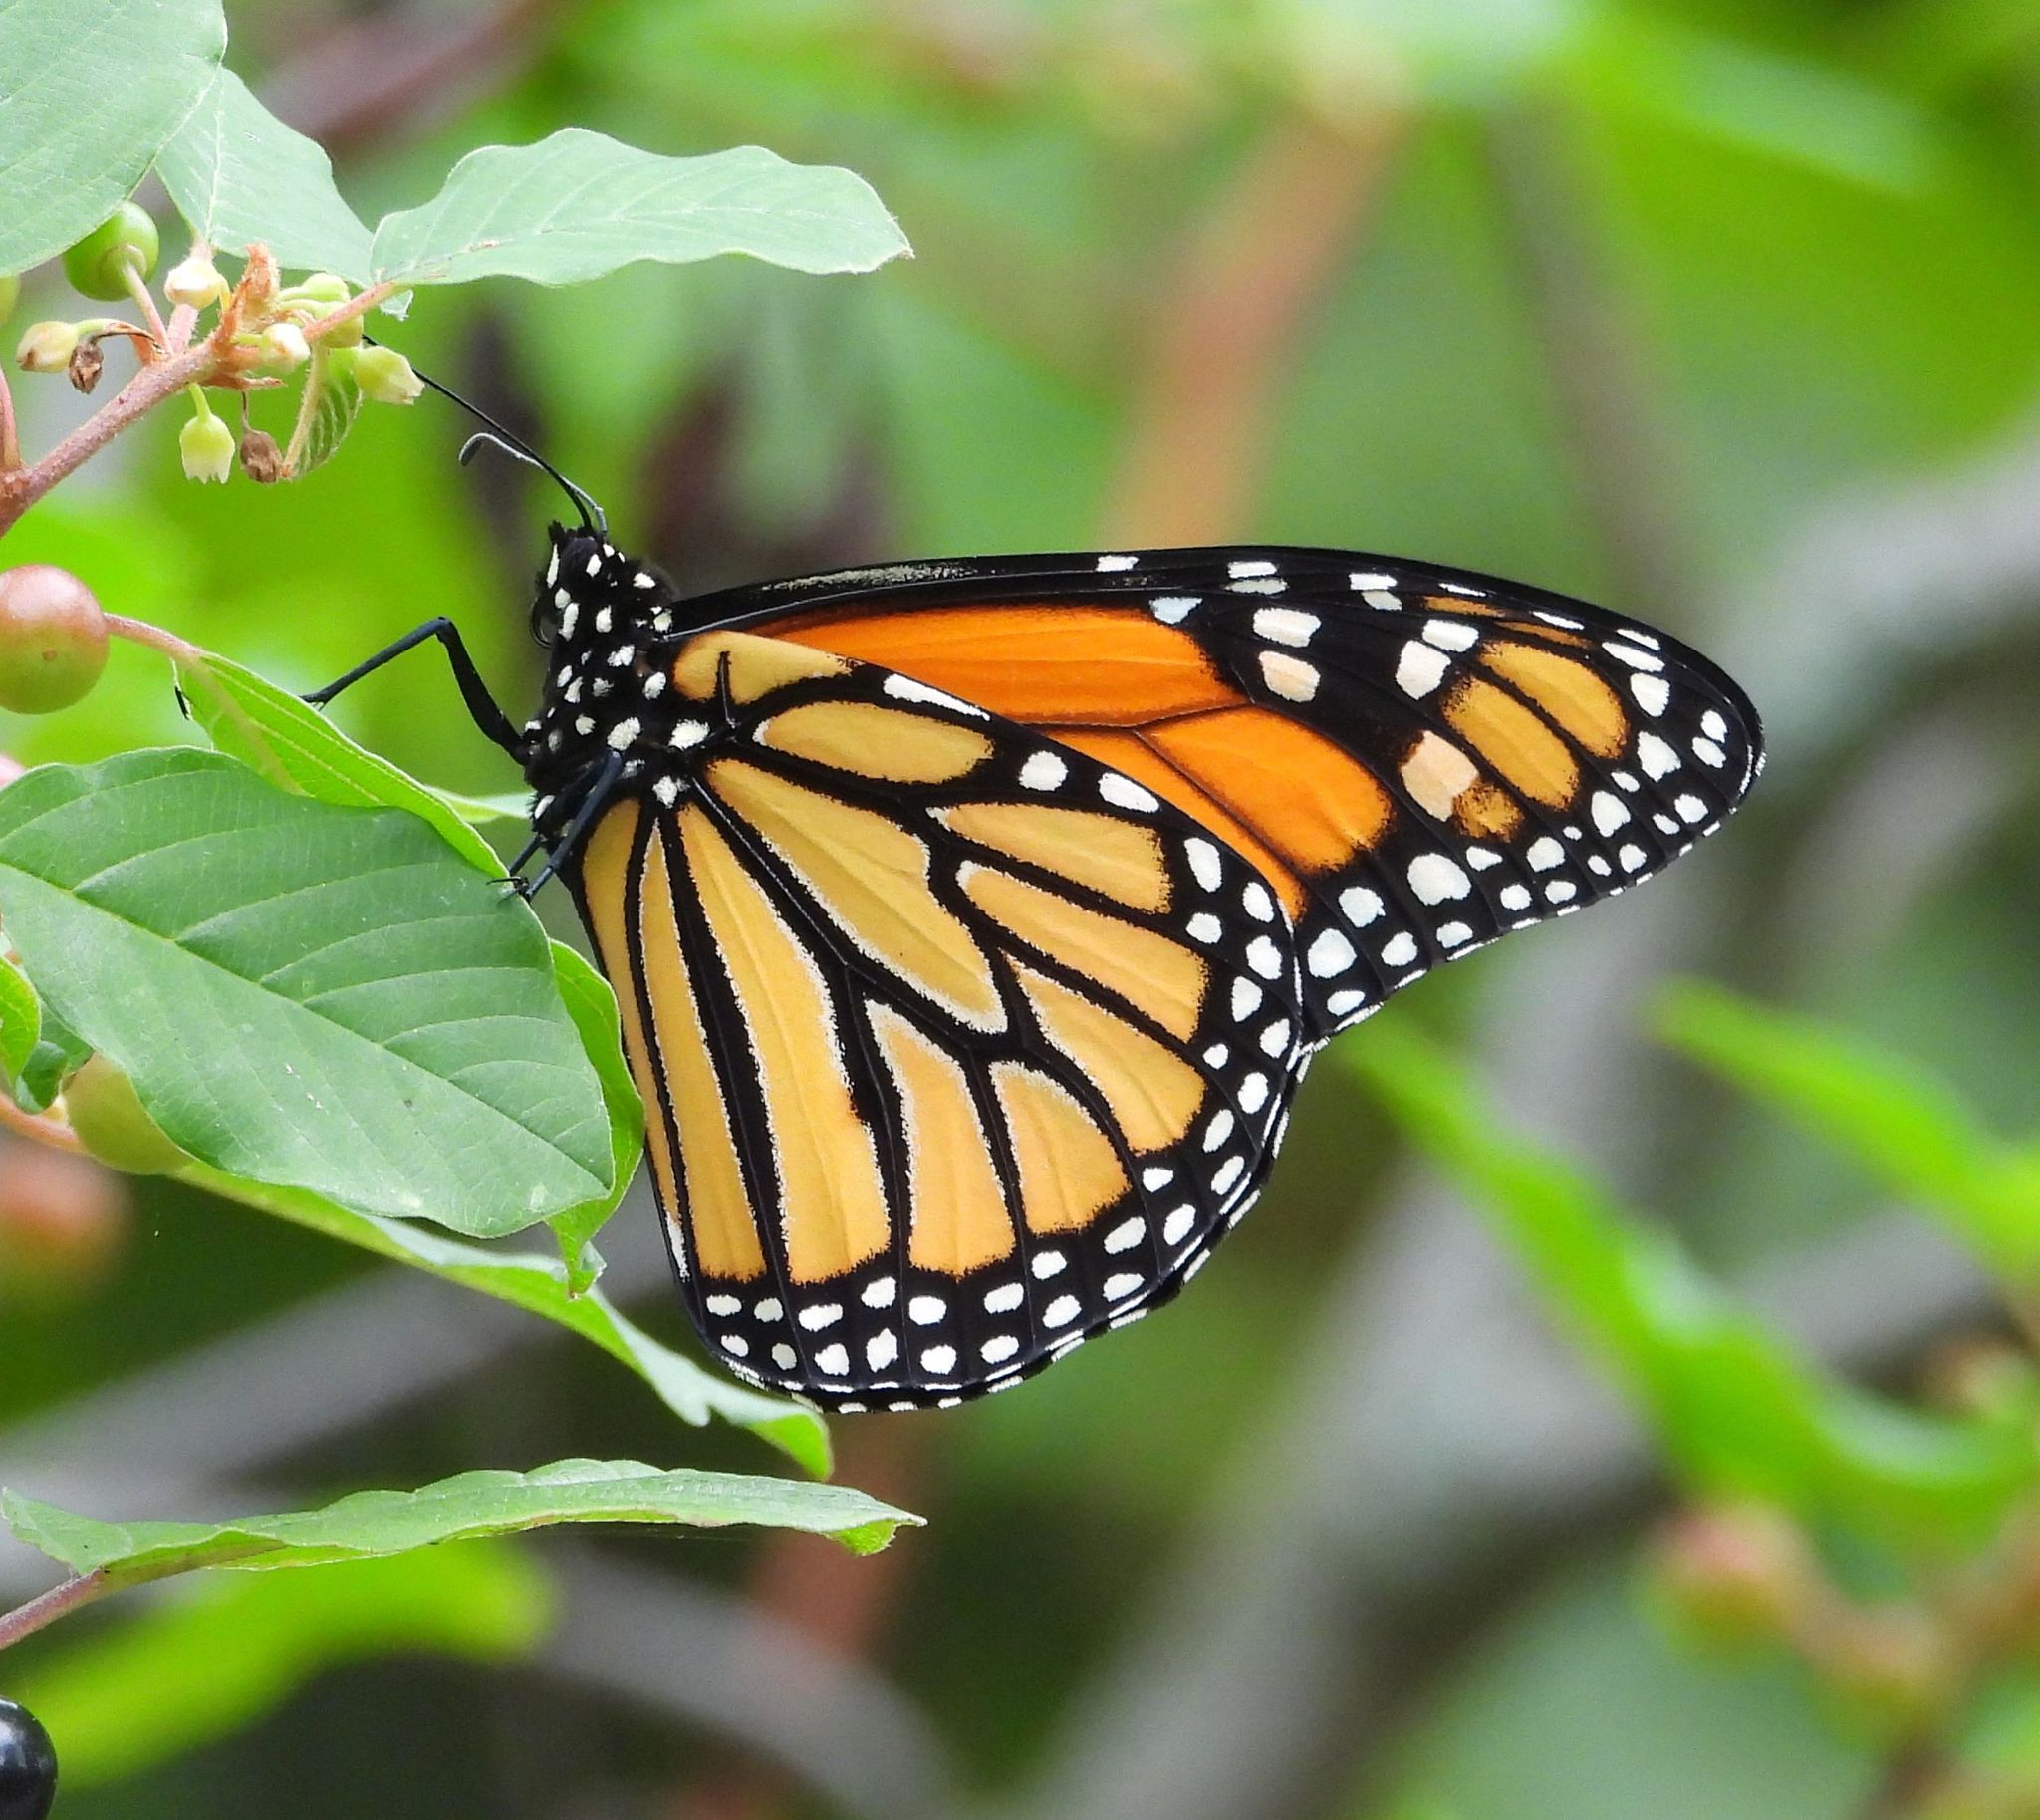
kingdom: Animalia
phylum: Arthropoda
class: Insecta
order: Lepidoptera
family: Nymphalidae
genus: Danaus
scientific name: Danaus plexippus
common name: Monarch
